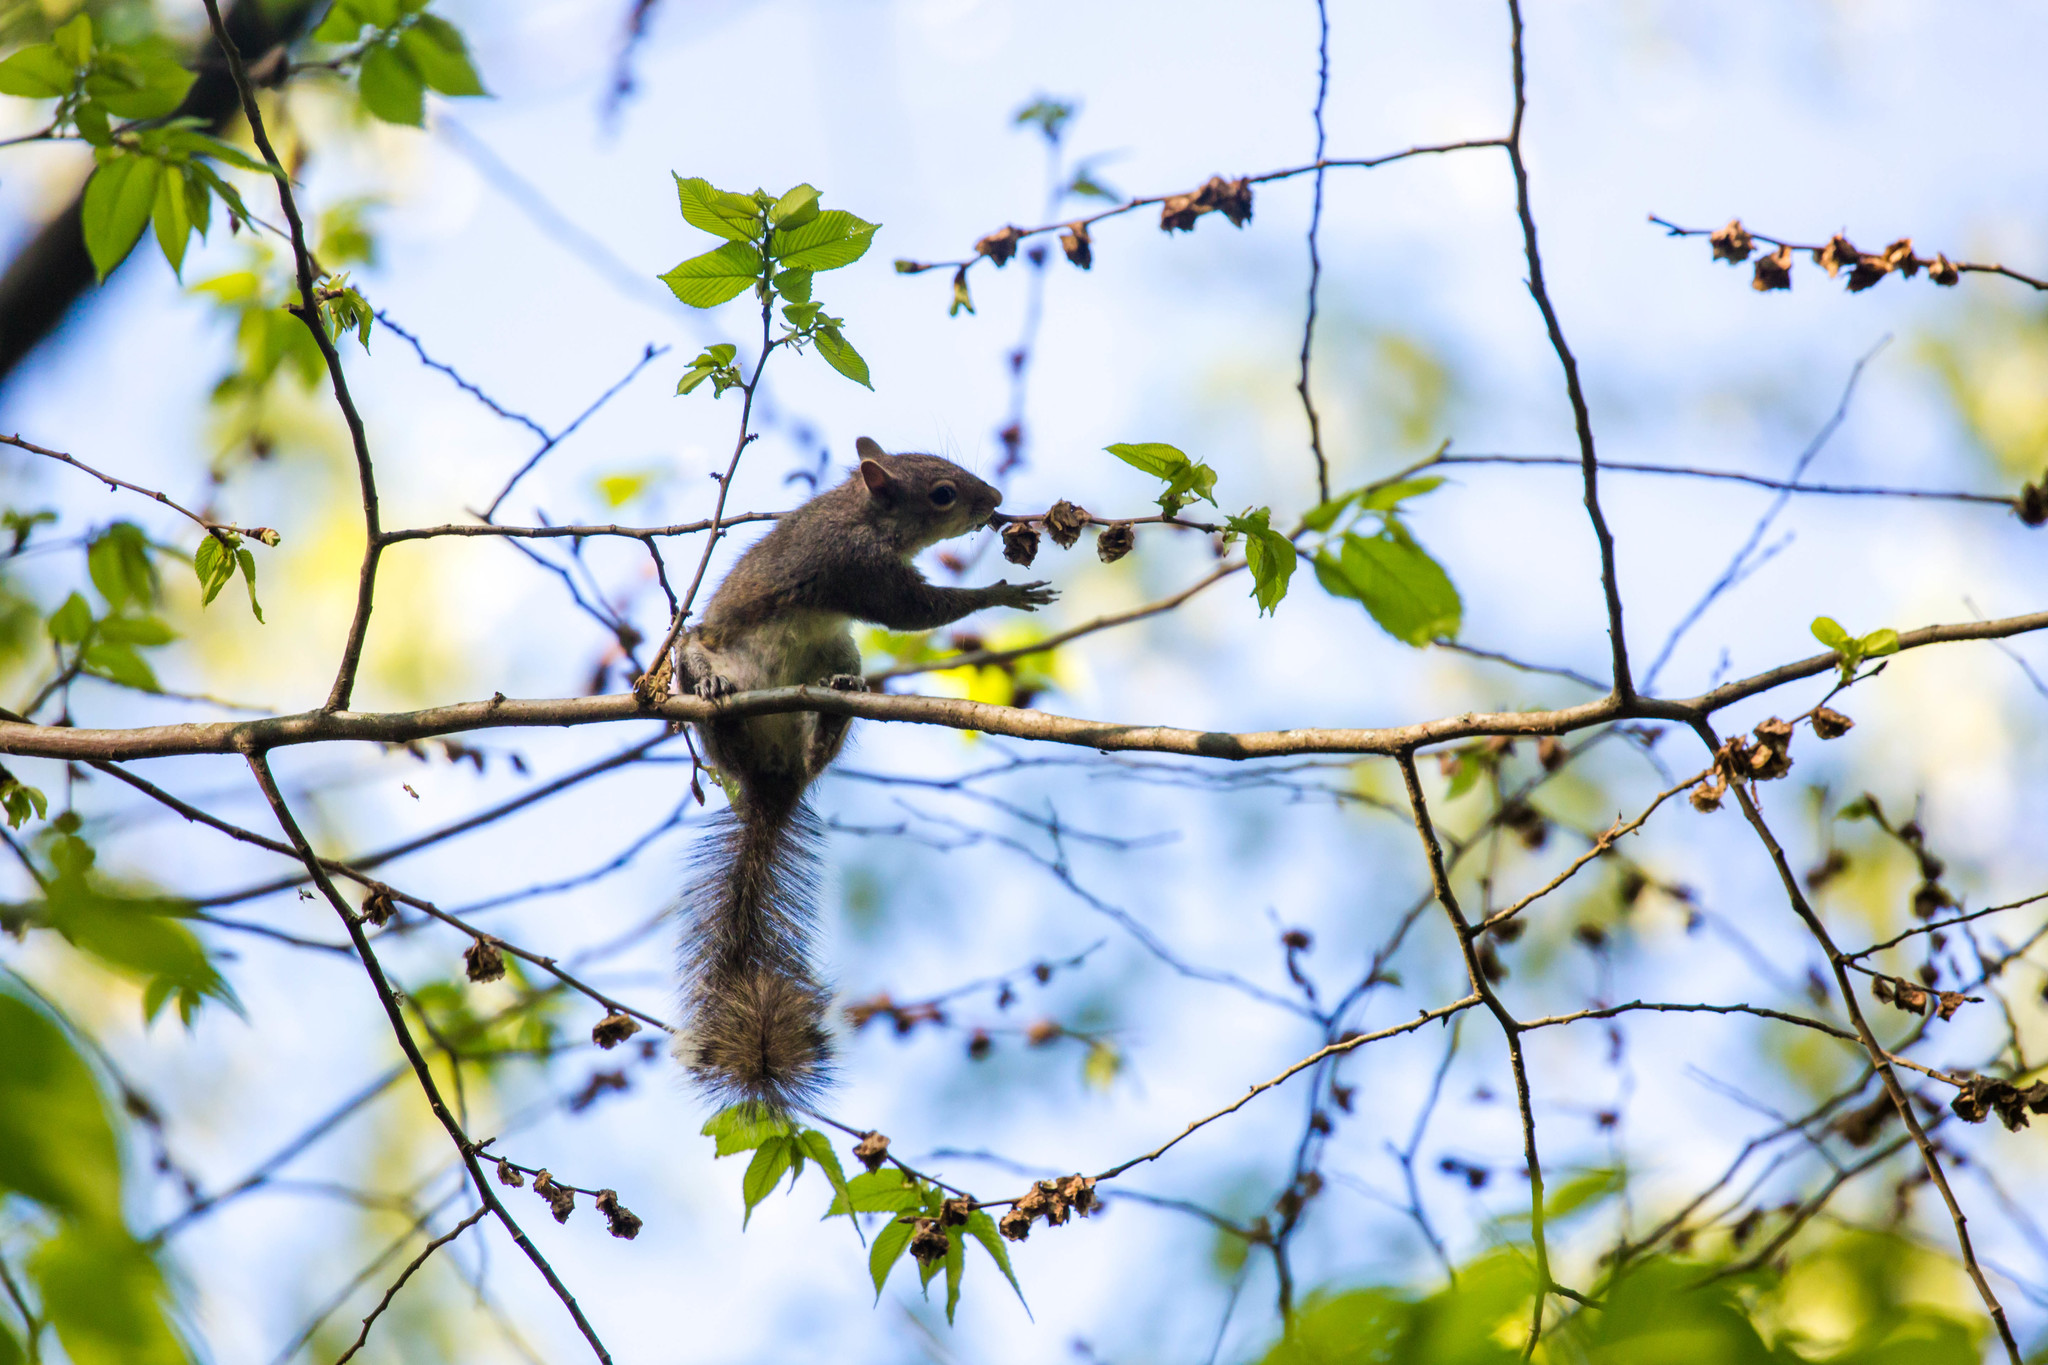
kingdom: Animalia
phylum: Chordata
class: Mammalia
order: Rodentia
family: Sciuridae
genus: Sciurus
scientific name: Sciurus carolinensis
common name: Eastern gray squirrel
